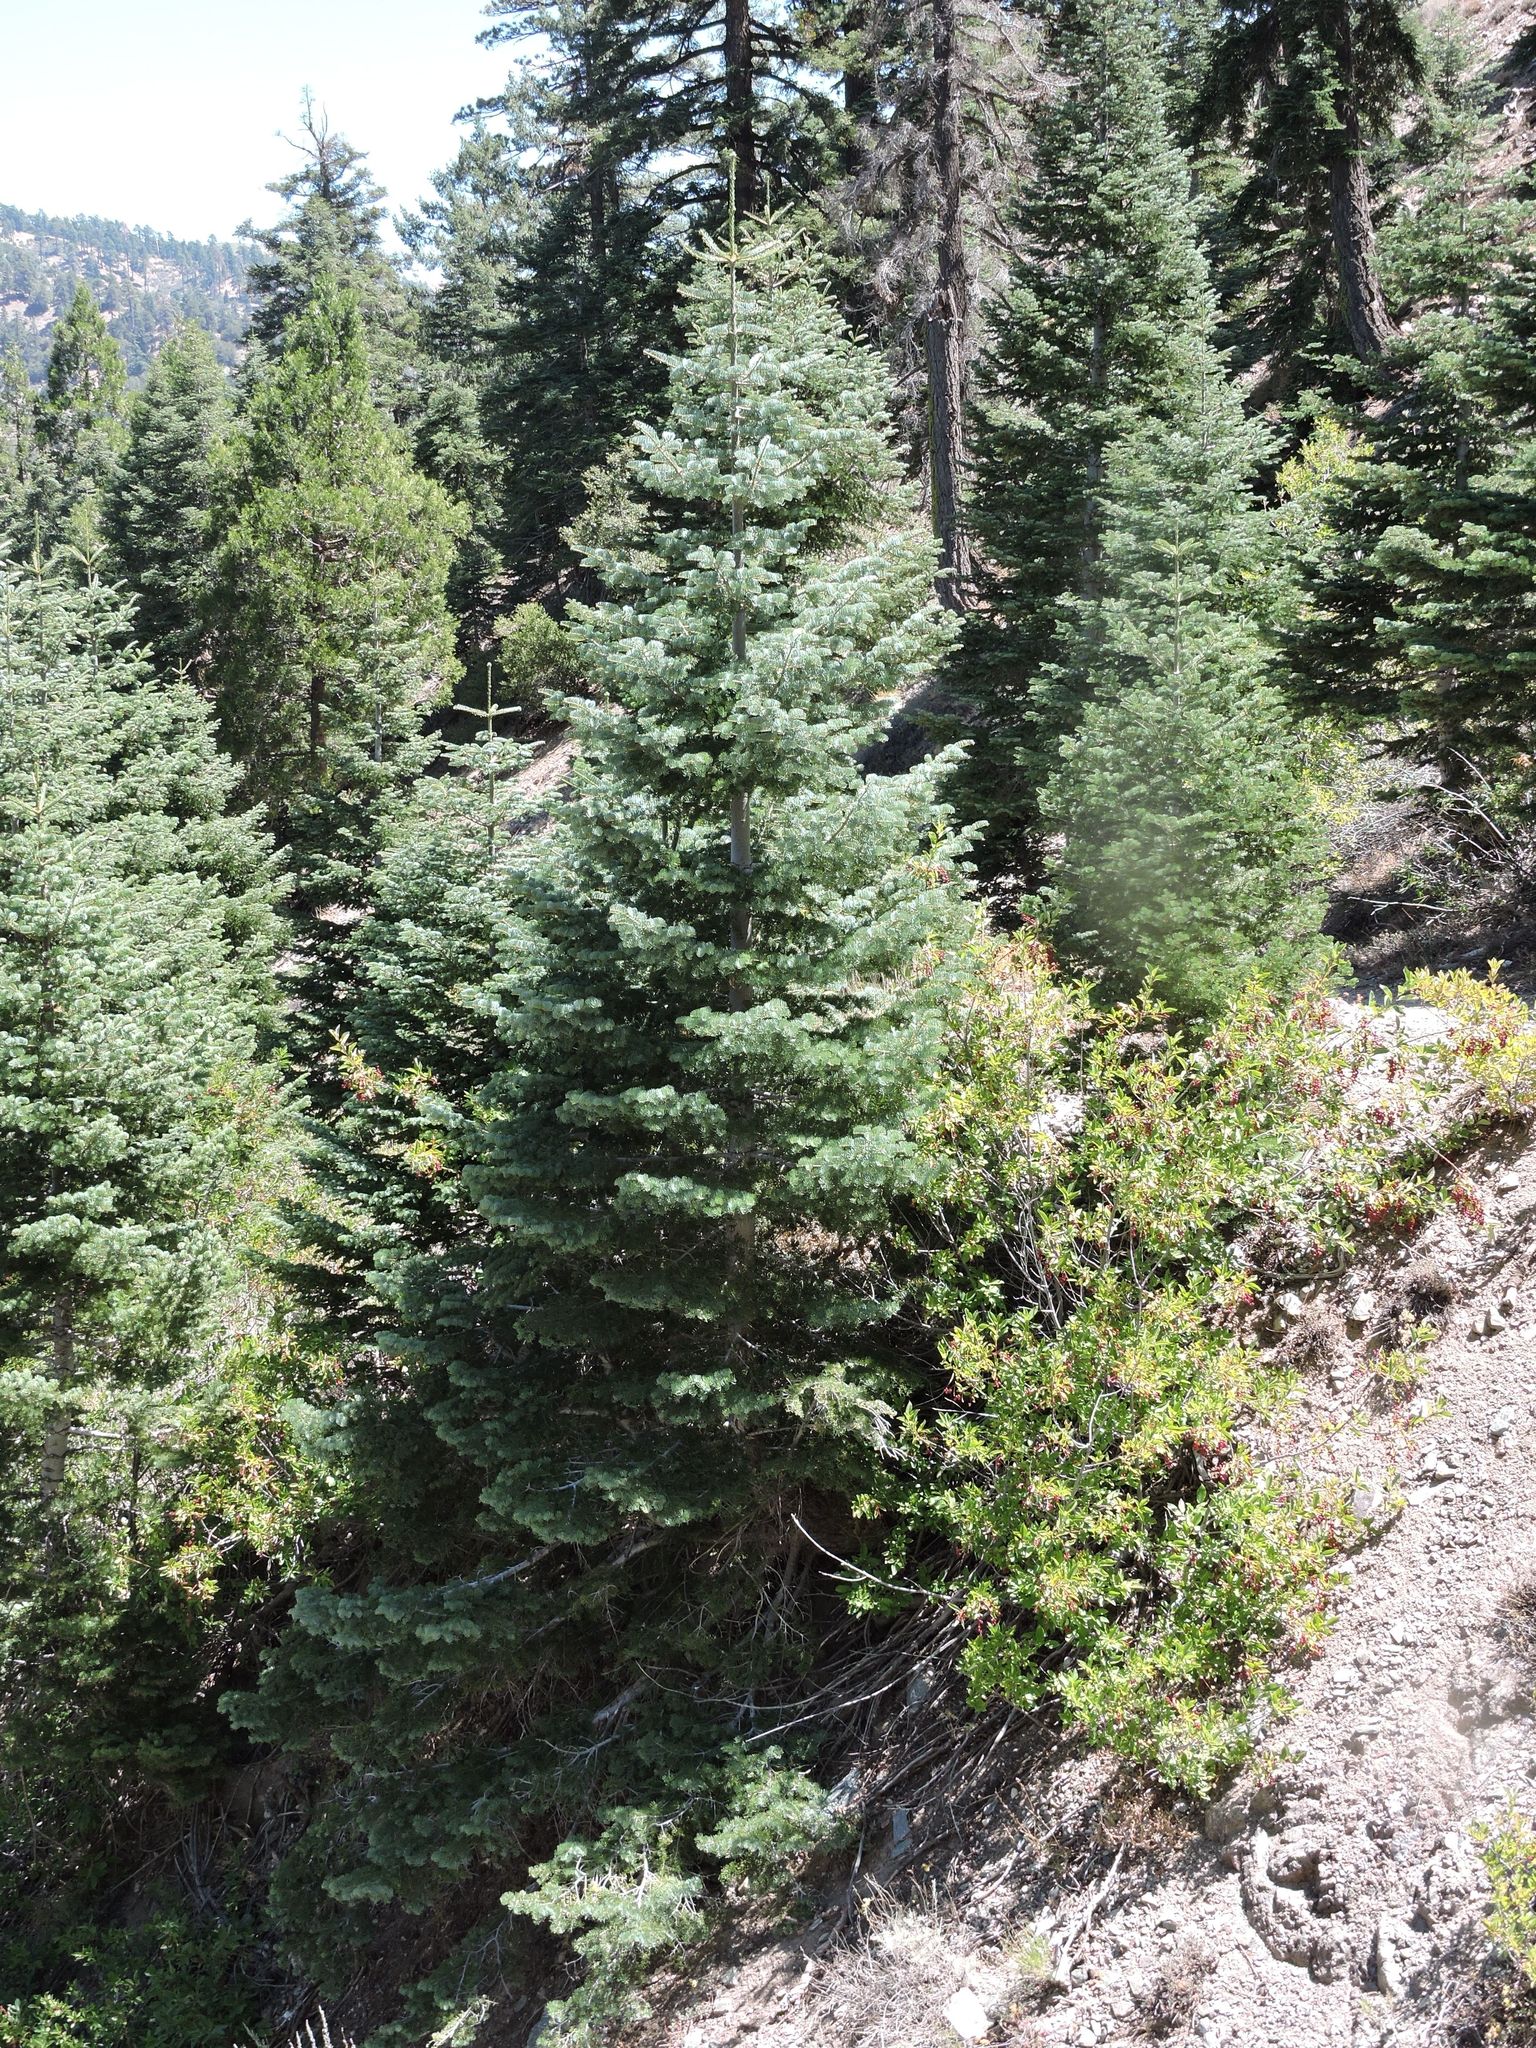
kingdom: Plantae
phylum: Tracheophyta
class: Pinopsida
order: Pinales
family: Pinaceae
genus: Abies
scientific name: Abies concolor
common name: Colorado fir
